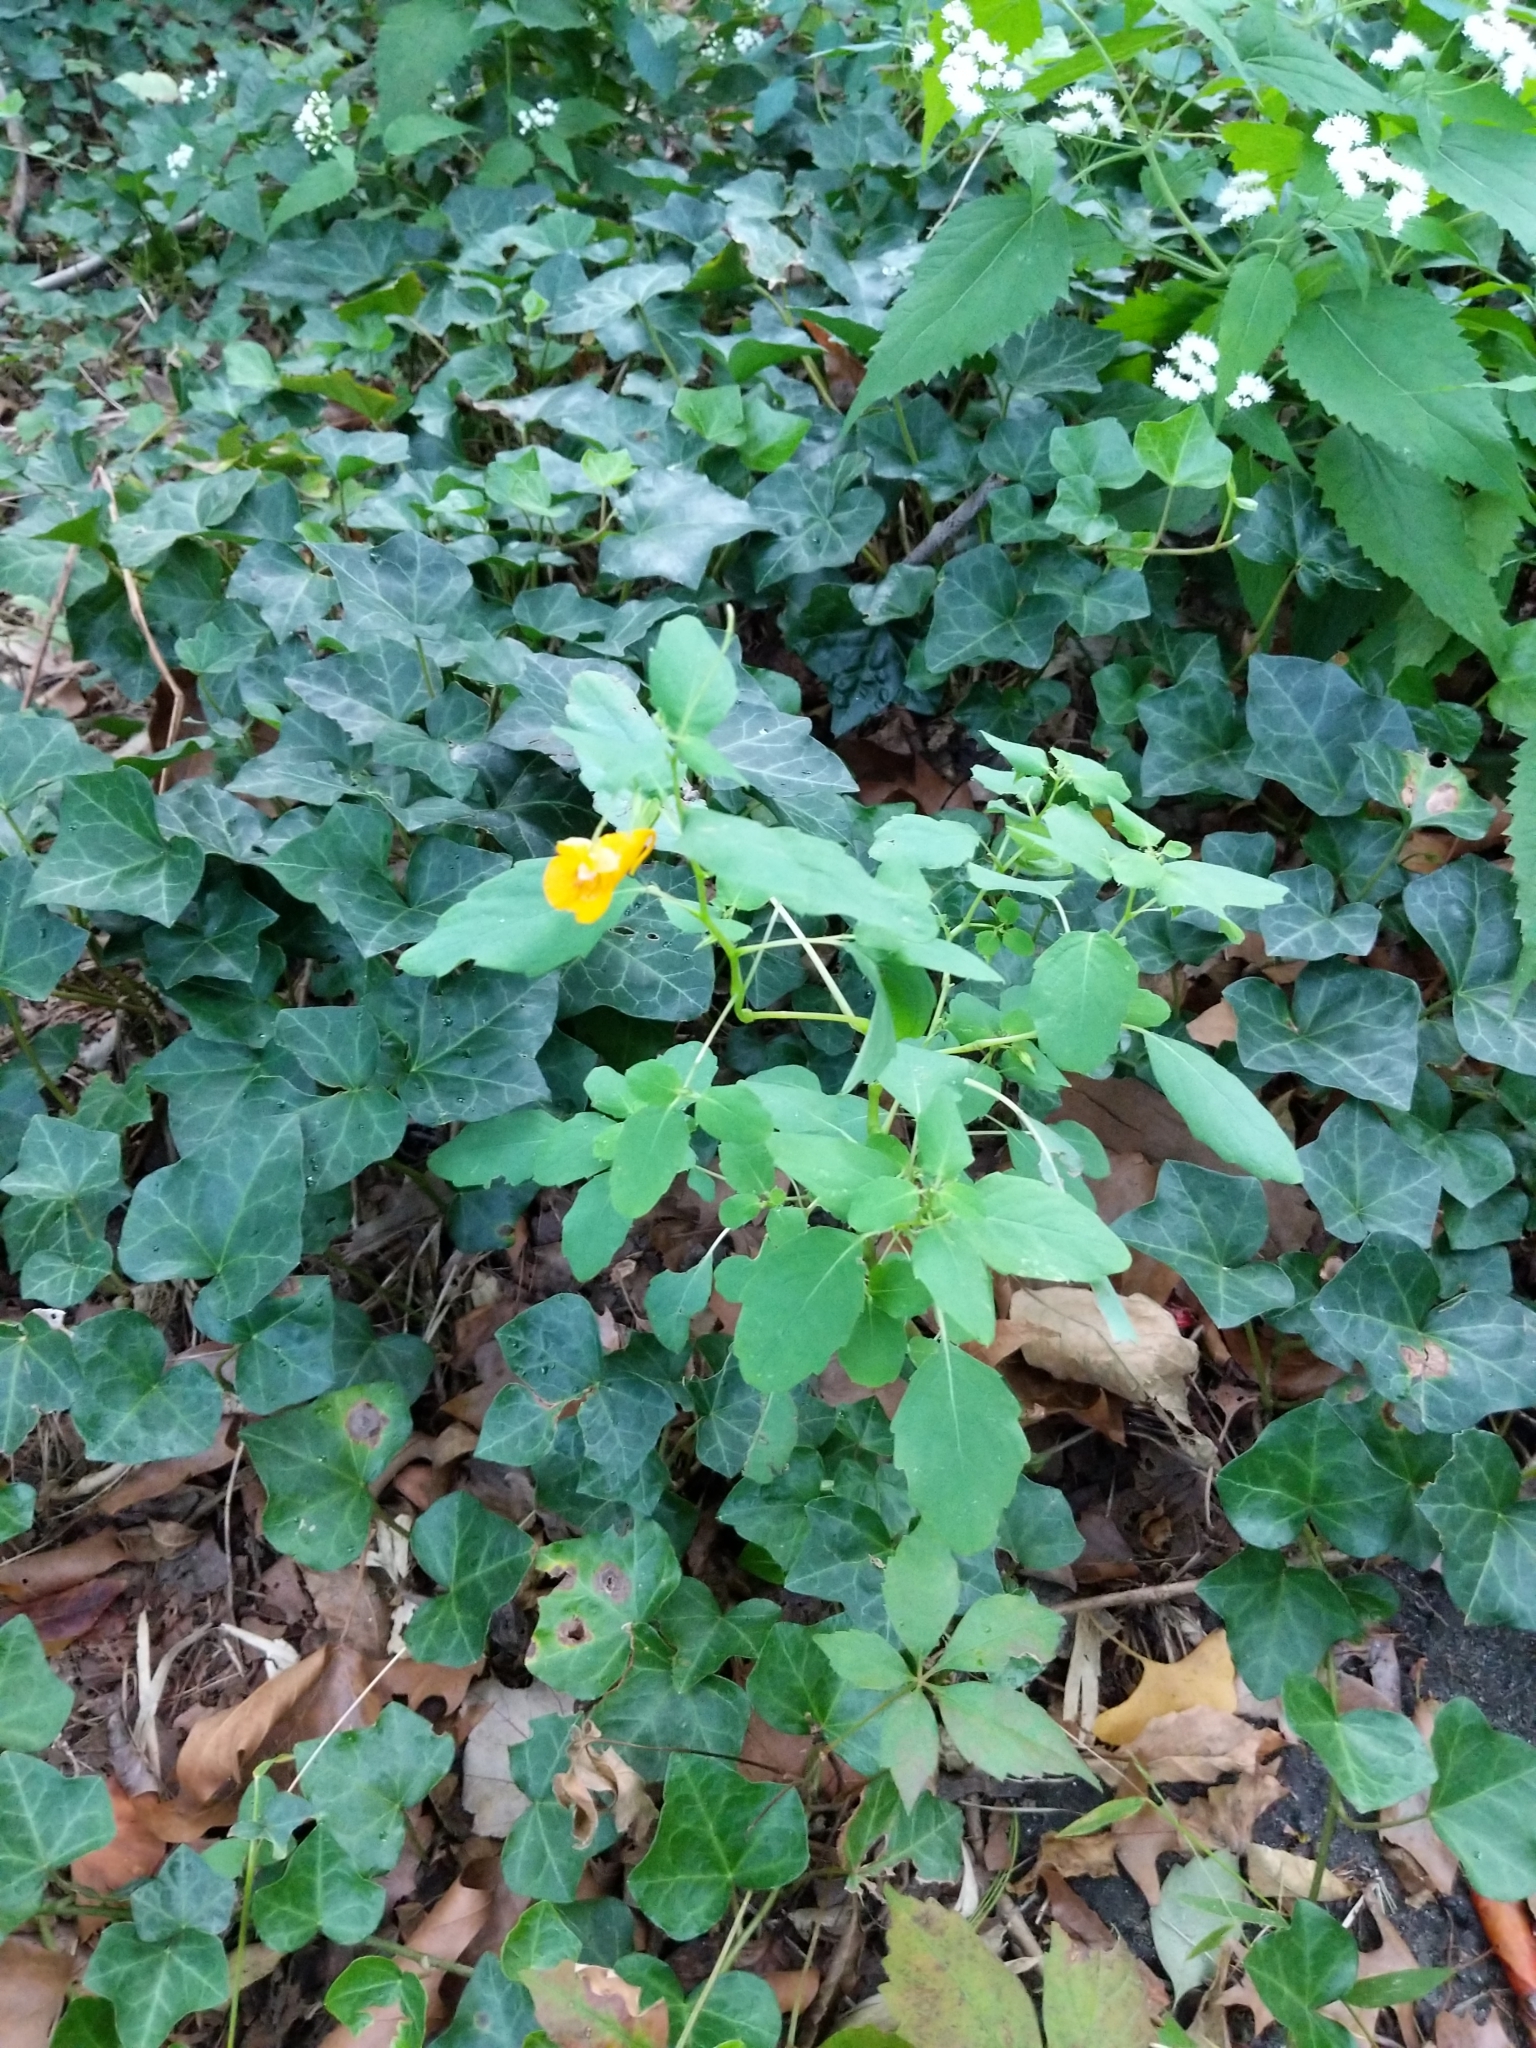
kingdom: Plantae
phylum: Tracheophyta
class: Magnoliopsida
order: Ericales
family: Balsaminaceae
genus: Impatiens
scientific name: Impatiens capensis
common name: Orange balsam
